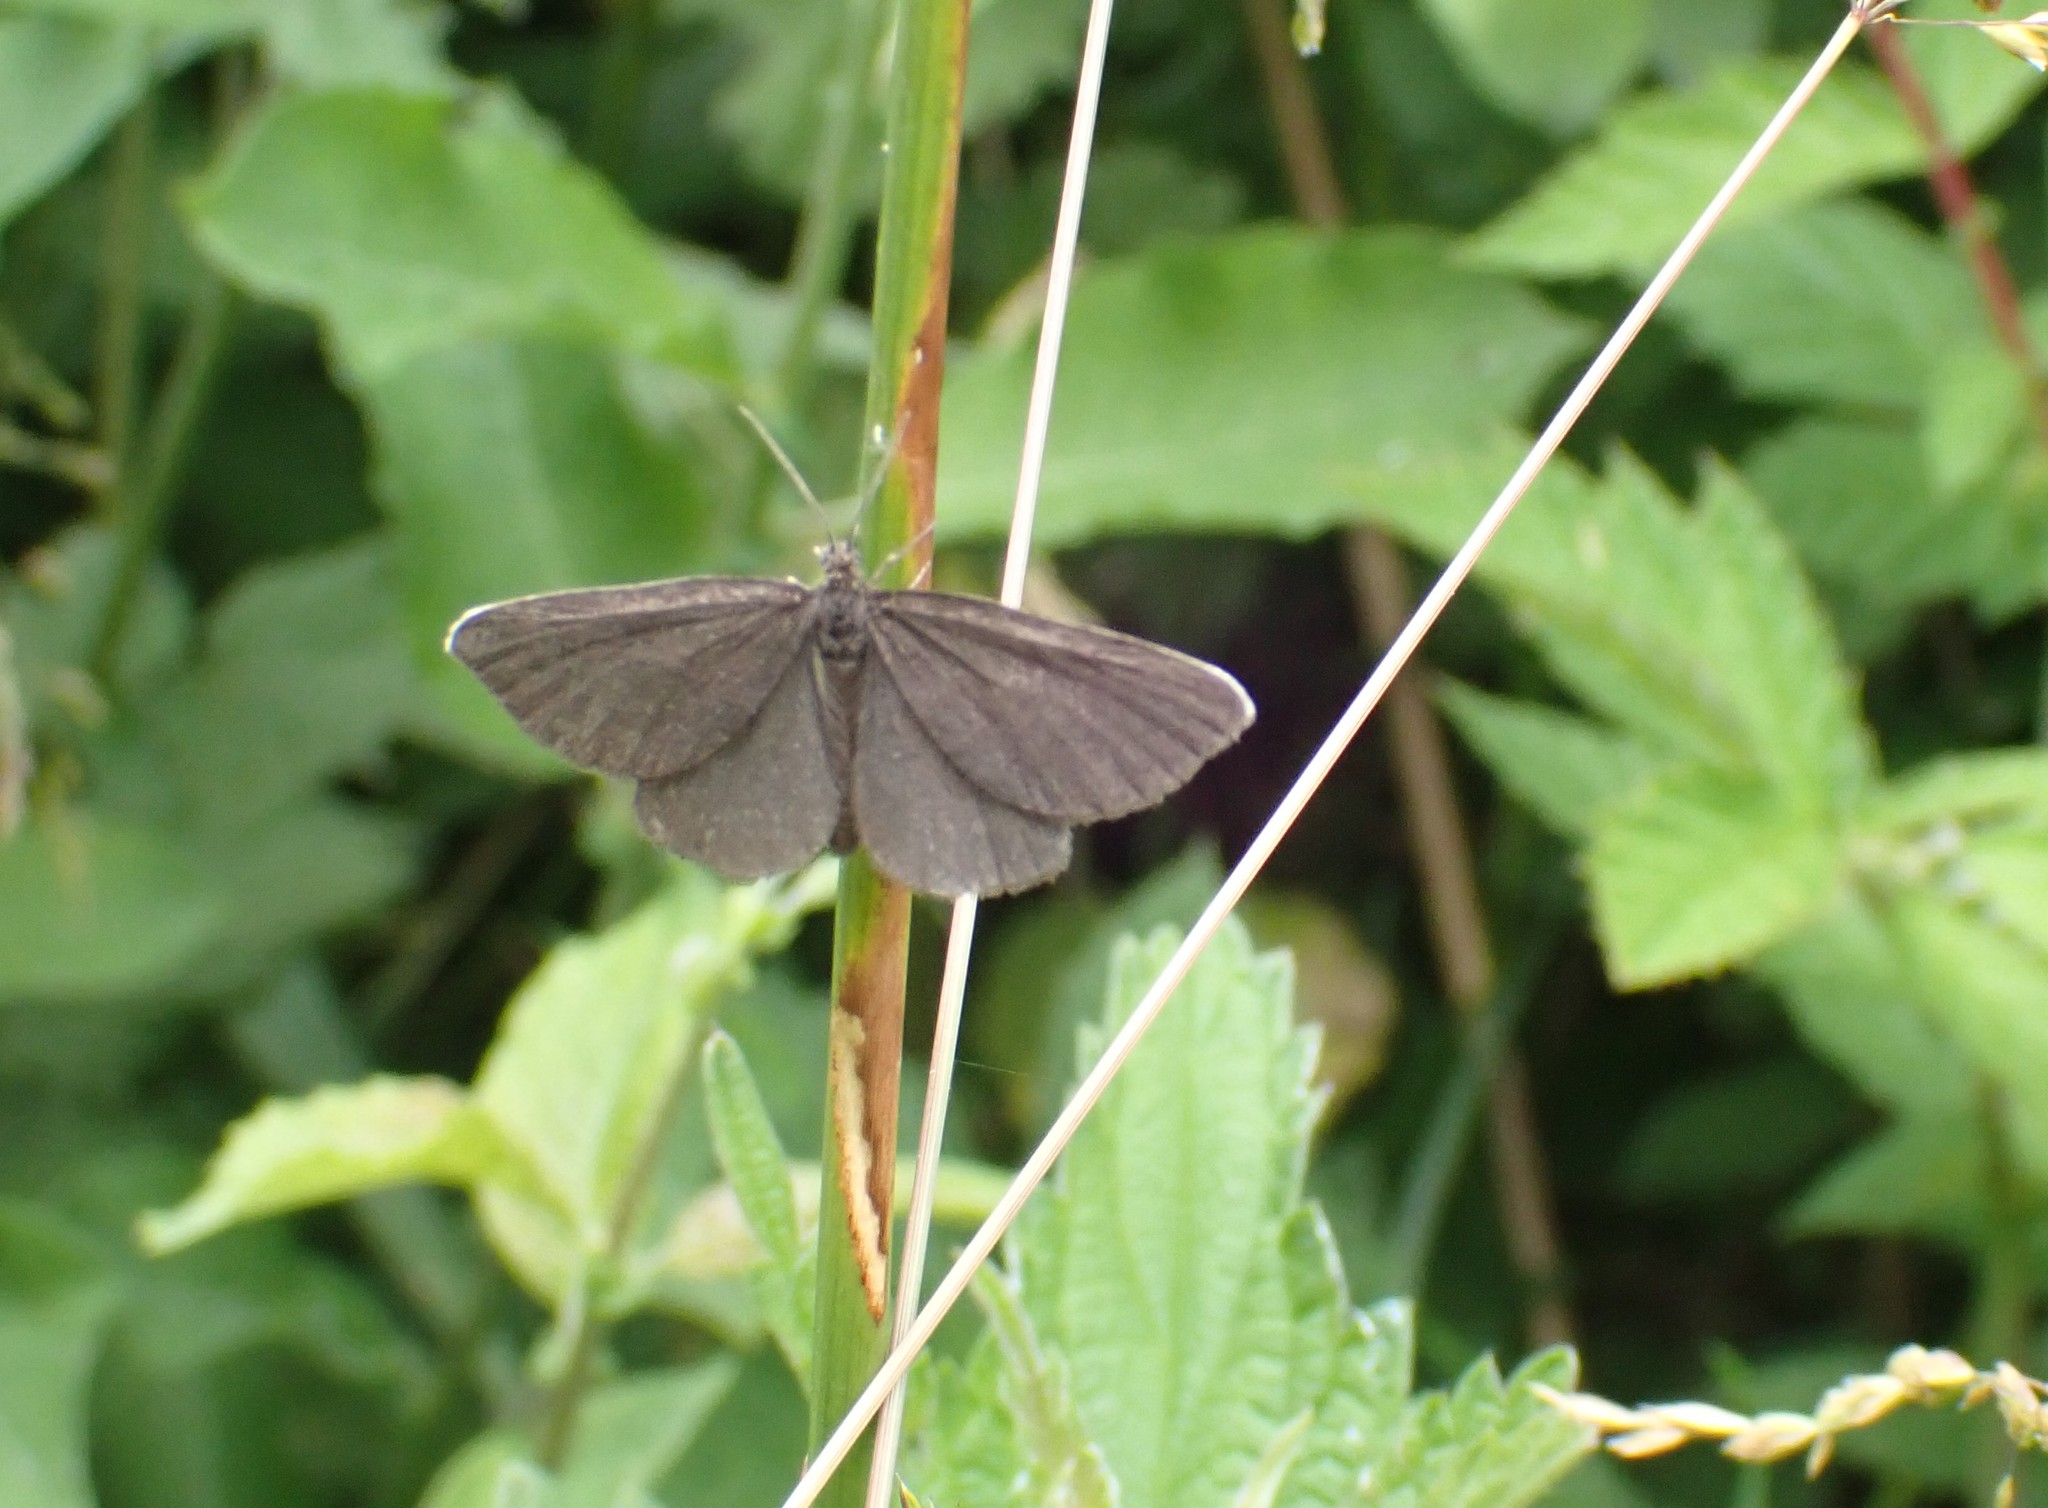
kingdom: Animalia
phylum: Arthropoda
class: Insecta
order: Lepidoptera
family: Geometridae
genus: Odezia
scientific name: Odezia atrata
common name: Chimney sweeper
